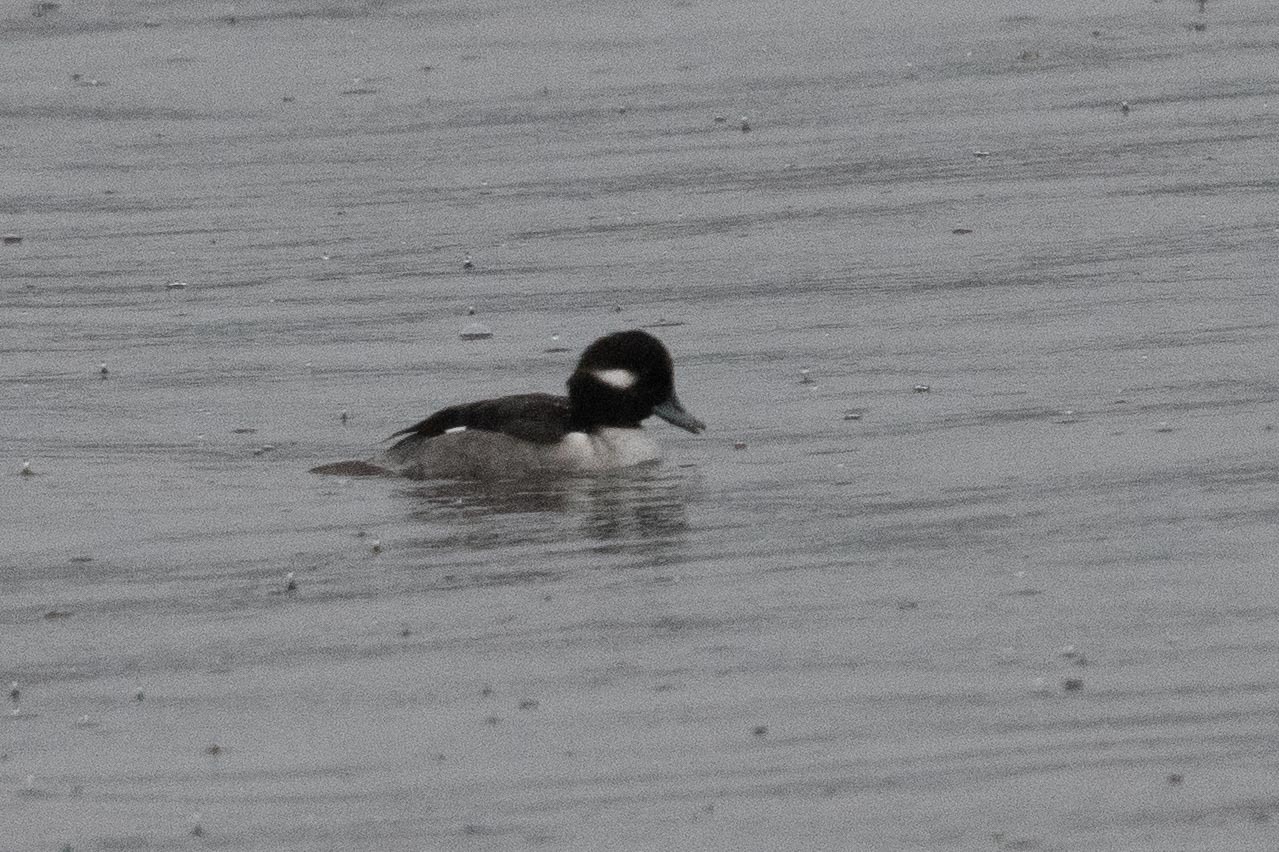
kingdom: Animalia
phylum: Chordata
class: Aves
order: Anseriformes
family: Anatidae
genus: Bucephala
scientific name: Bucephala albeola
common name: Bufflehead
